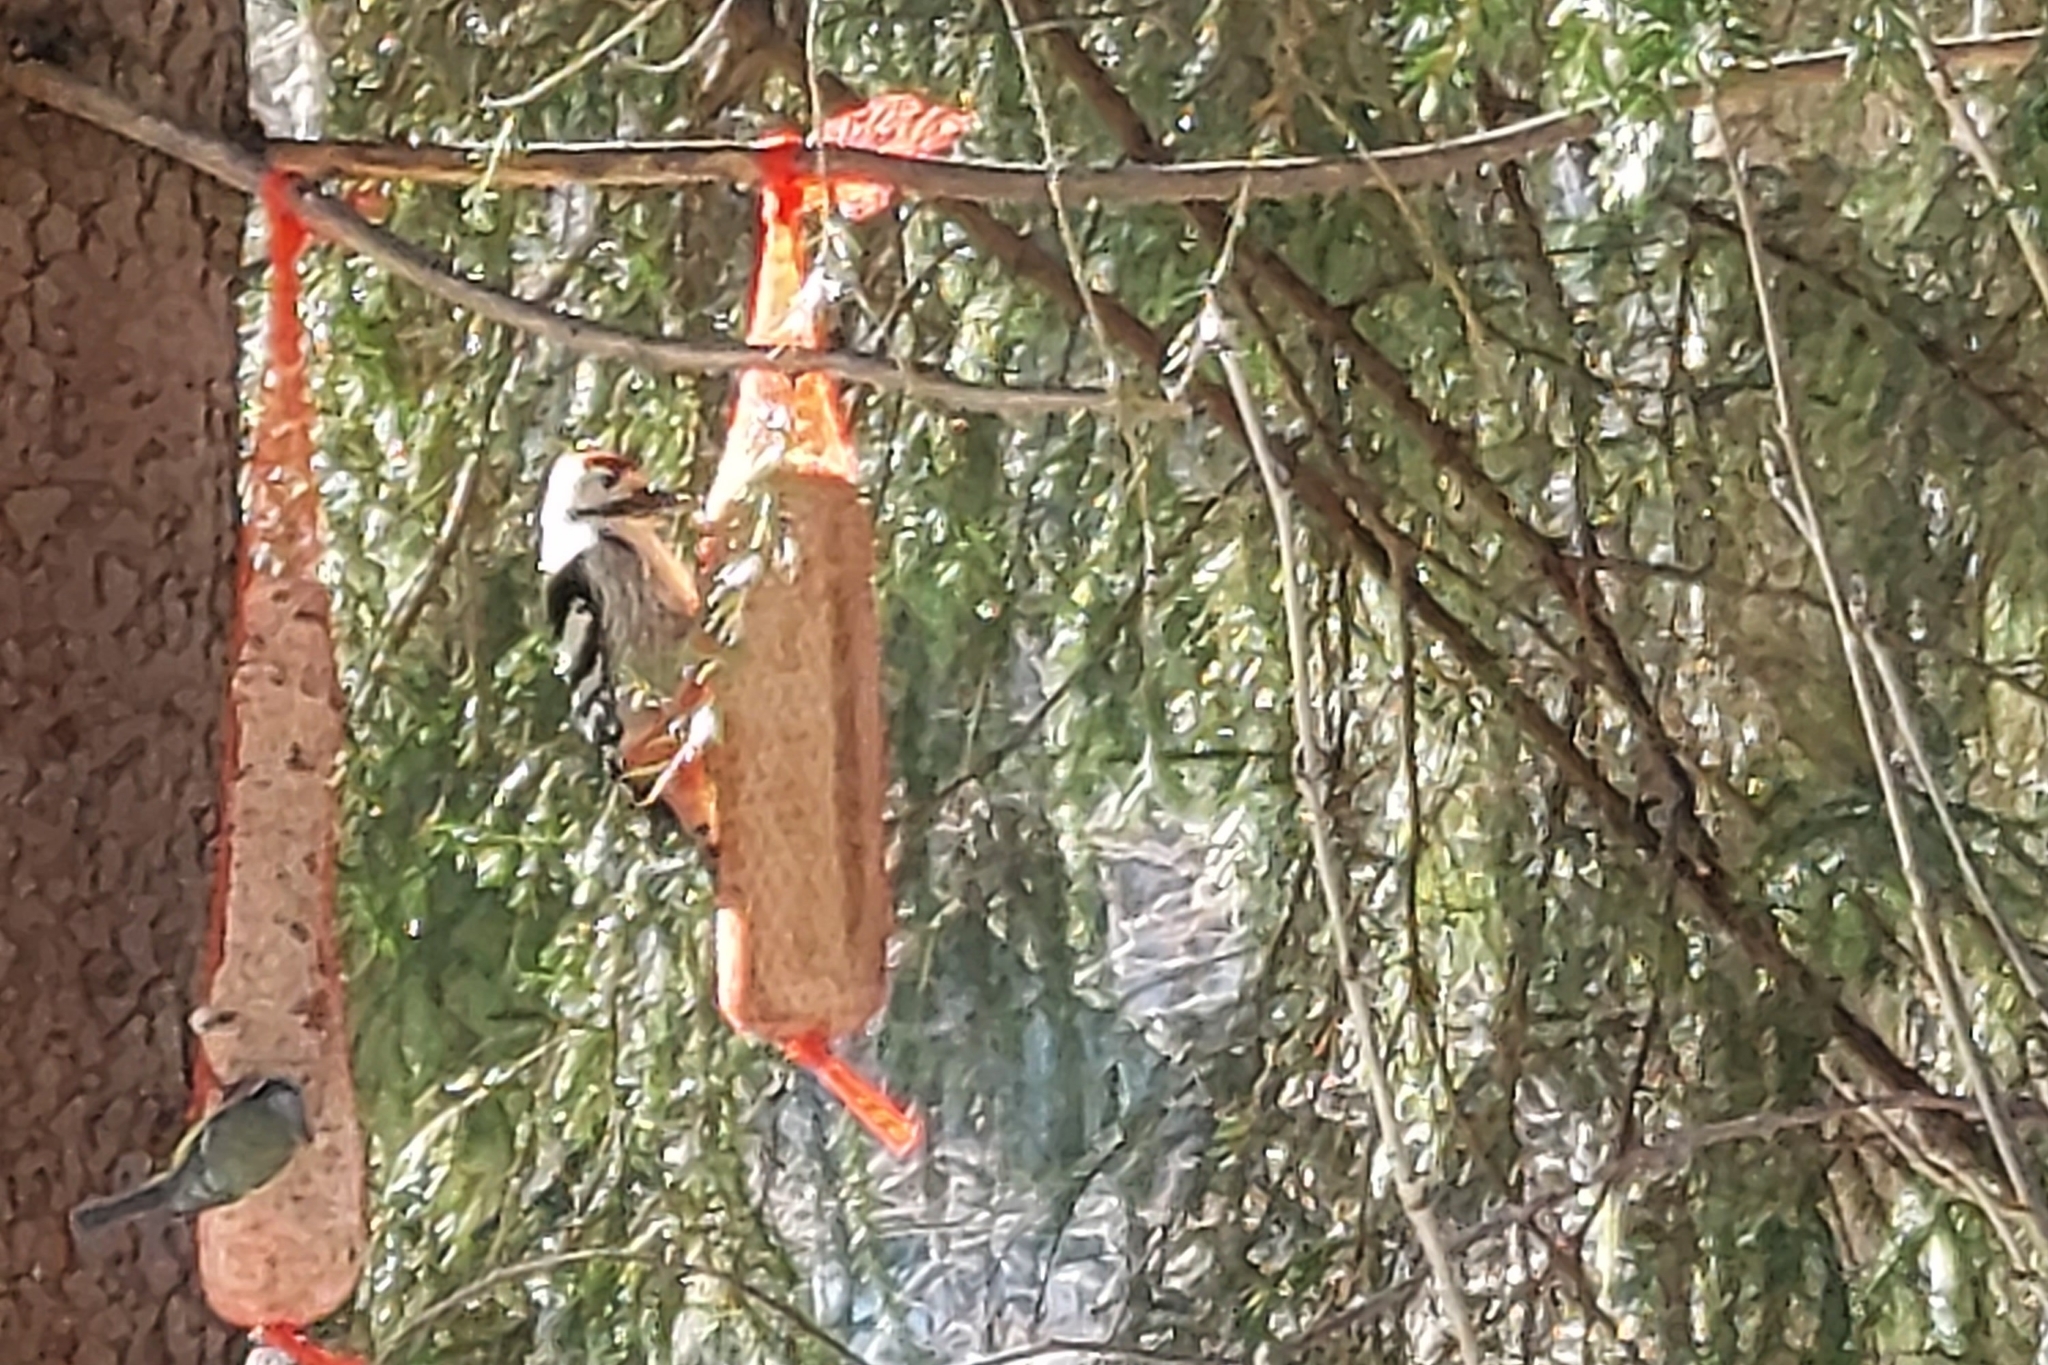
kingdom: Animalia
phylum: Chordata
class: Aves
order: Piciformes
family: Picidae
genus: Dendrocopos
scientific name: Dendrocopos leucotos
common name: White-backed woodpecker
